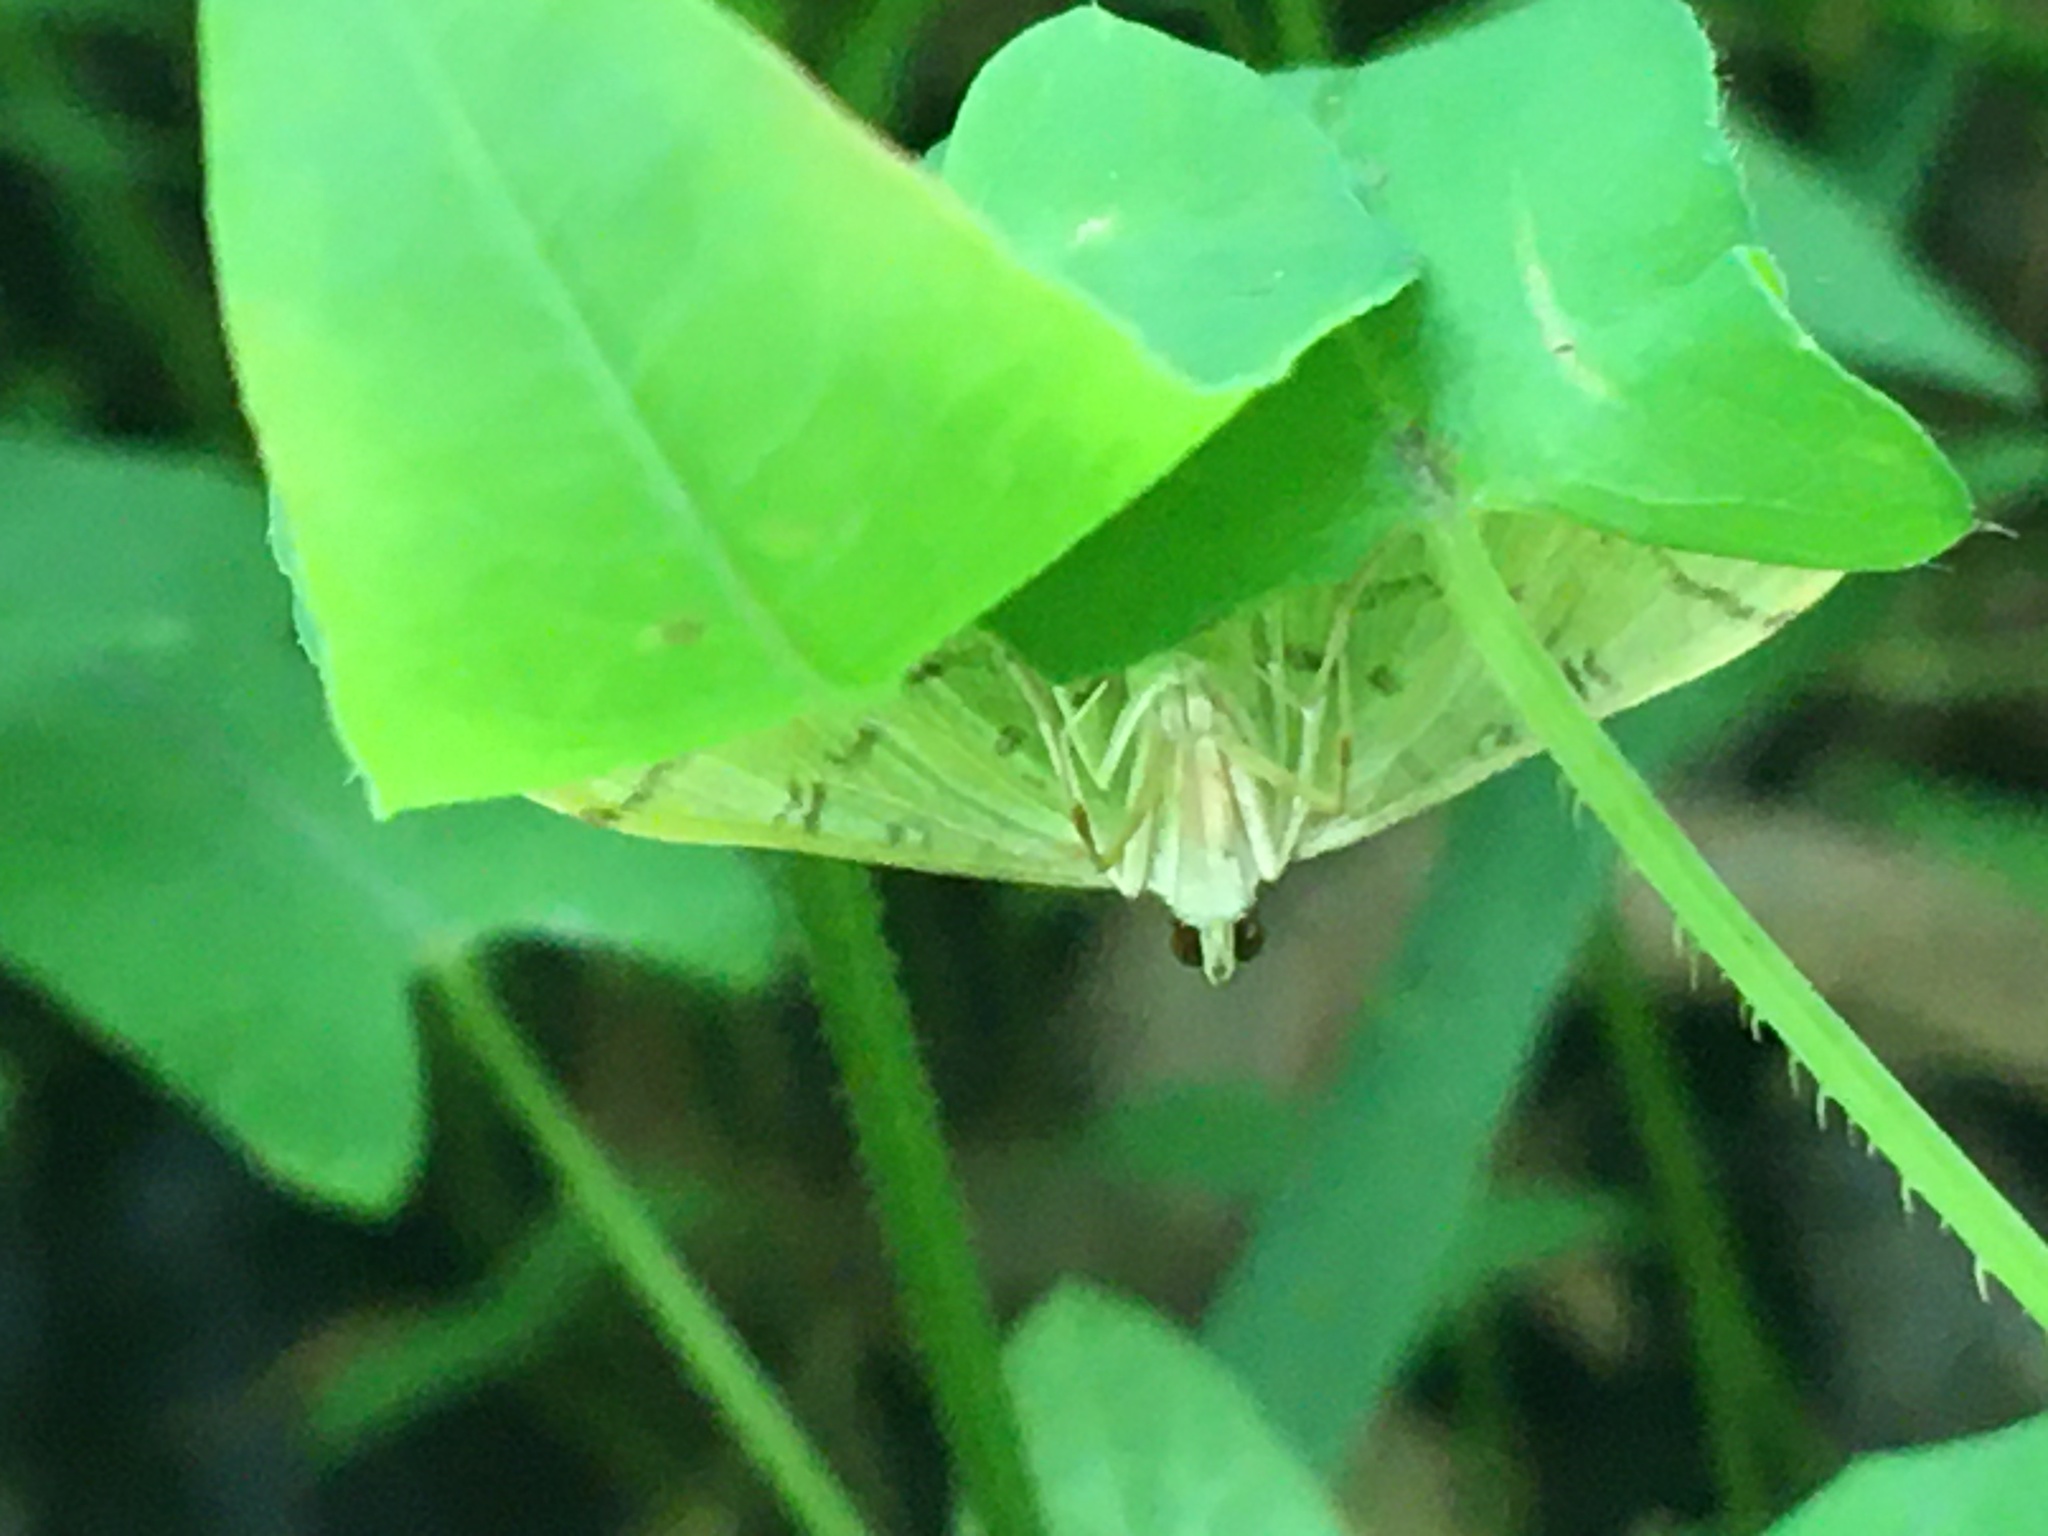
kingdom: Animalia
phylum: Arthropoda
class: Insecta
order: Lepidoptera
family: Crambidae
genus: Lamprosema
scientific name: Lamprosema Blepharomastix ranalis
